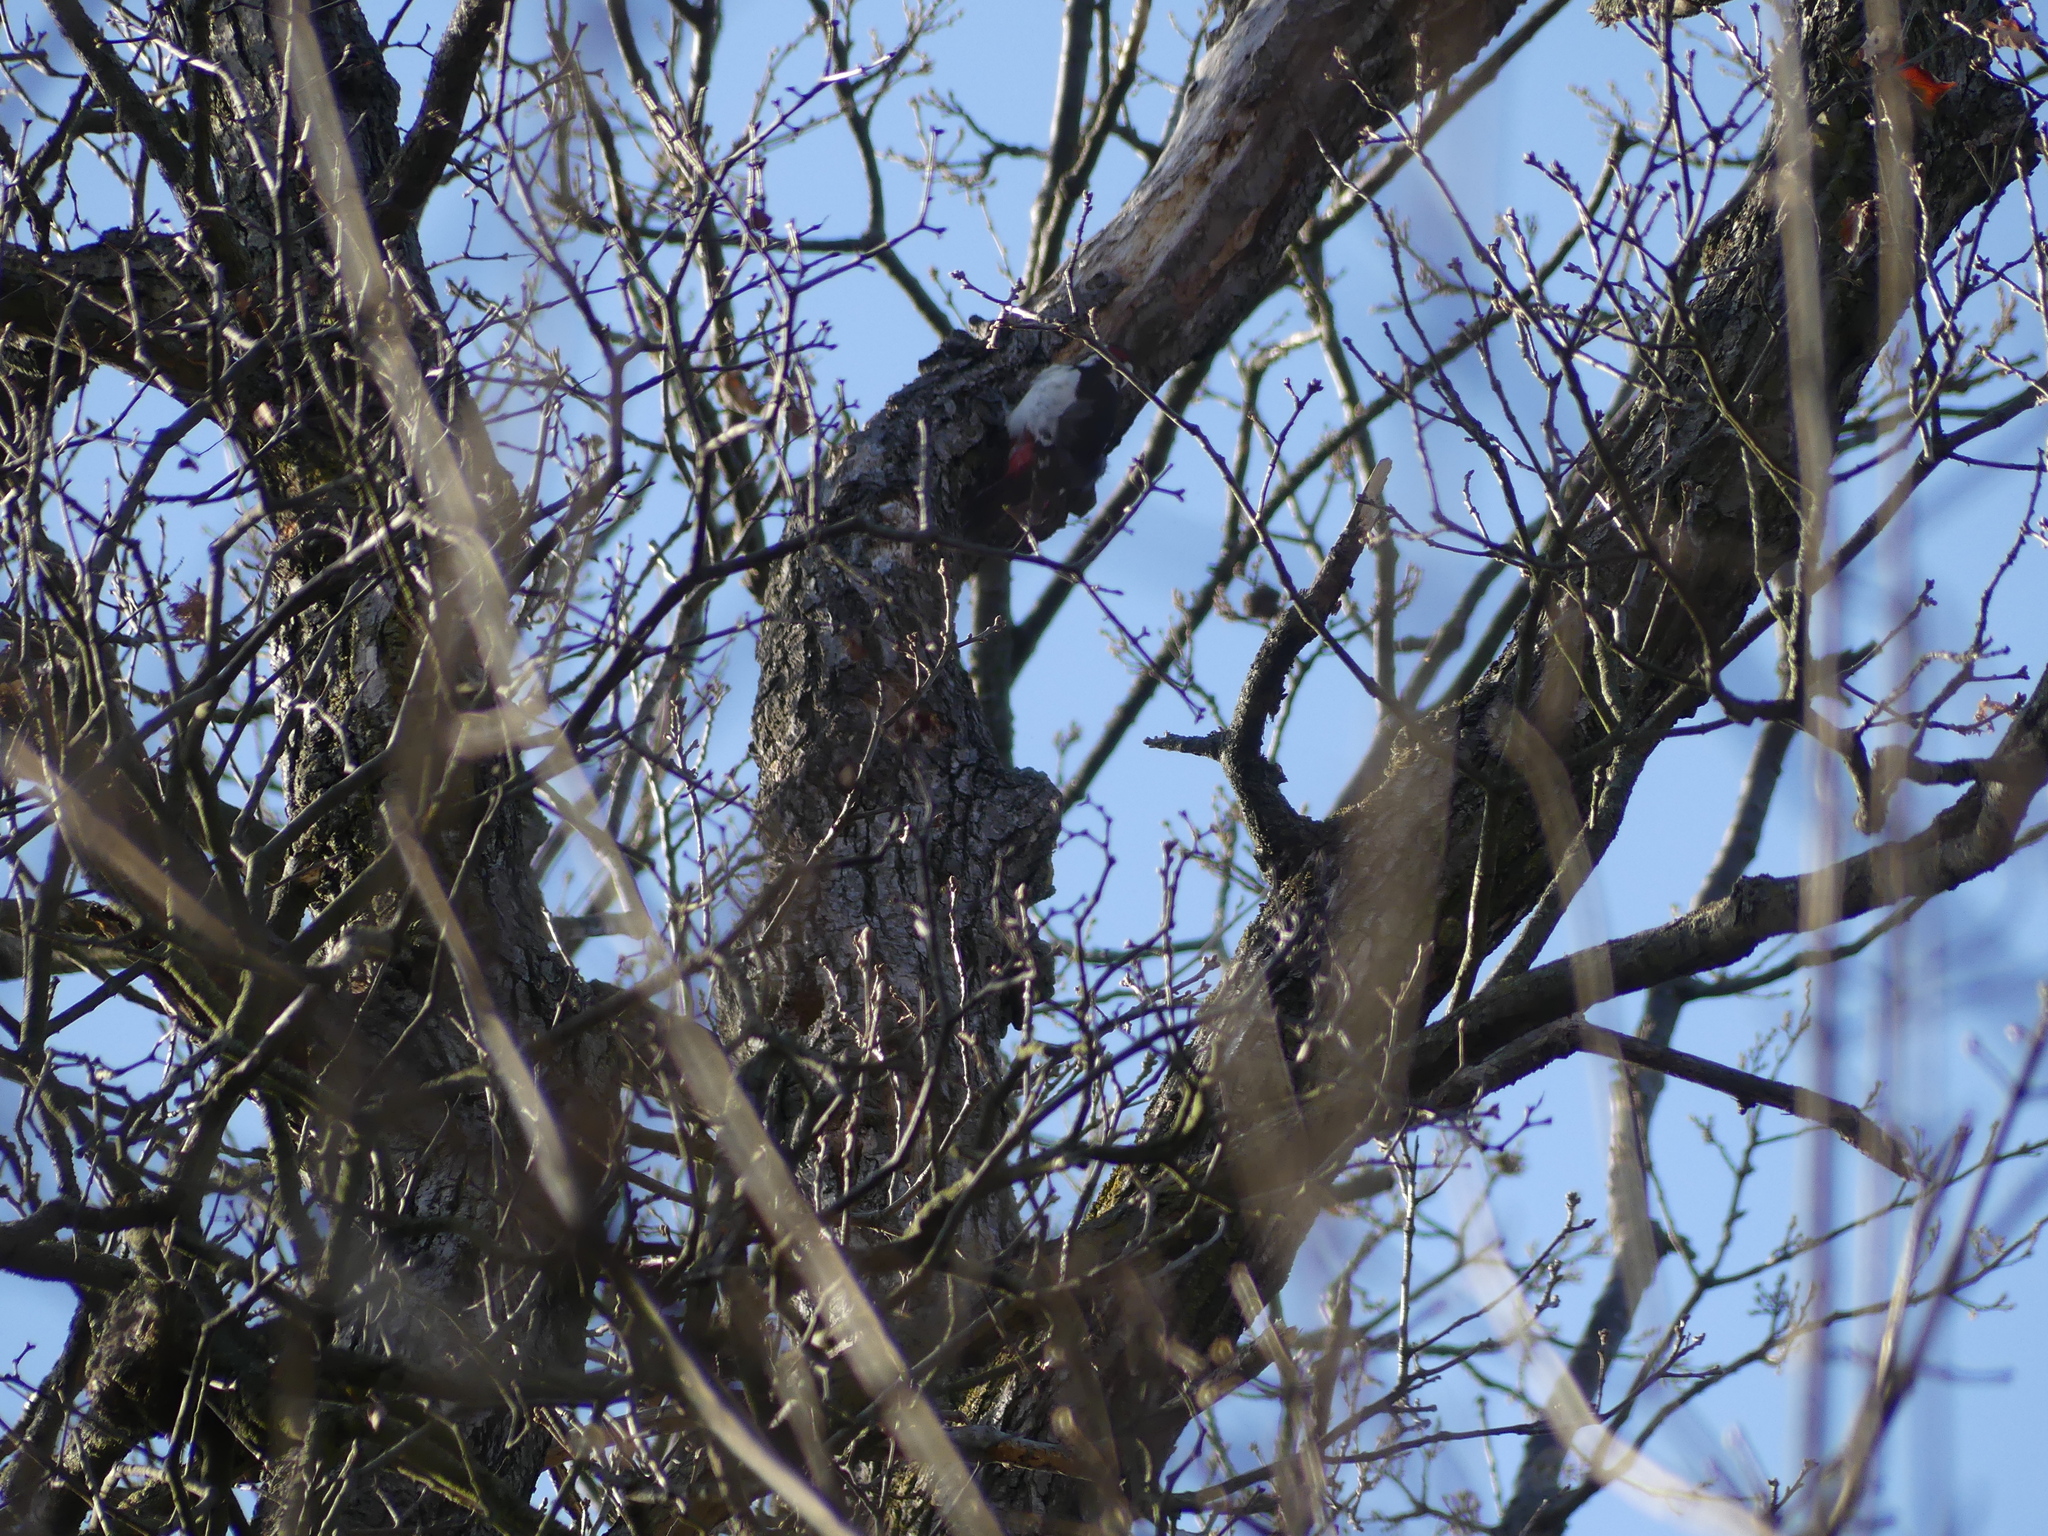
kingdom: Animalia
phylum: Chordata
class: Aves
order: Piciformes
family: Picidae
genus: Dendrocopos
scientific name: Dendrocopos major
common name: Great spotted woodpecker
